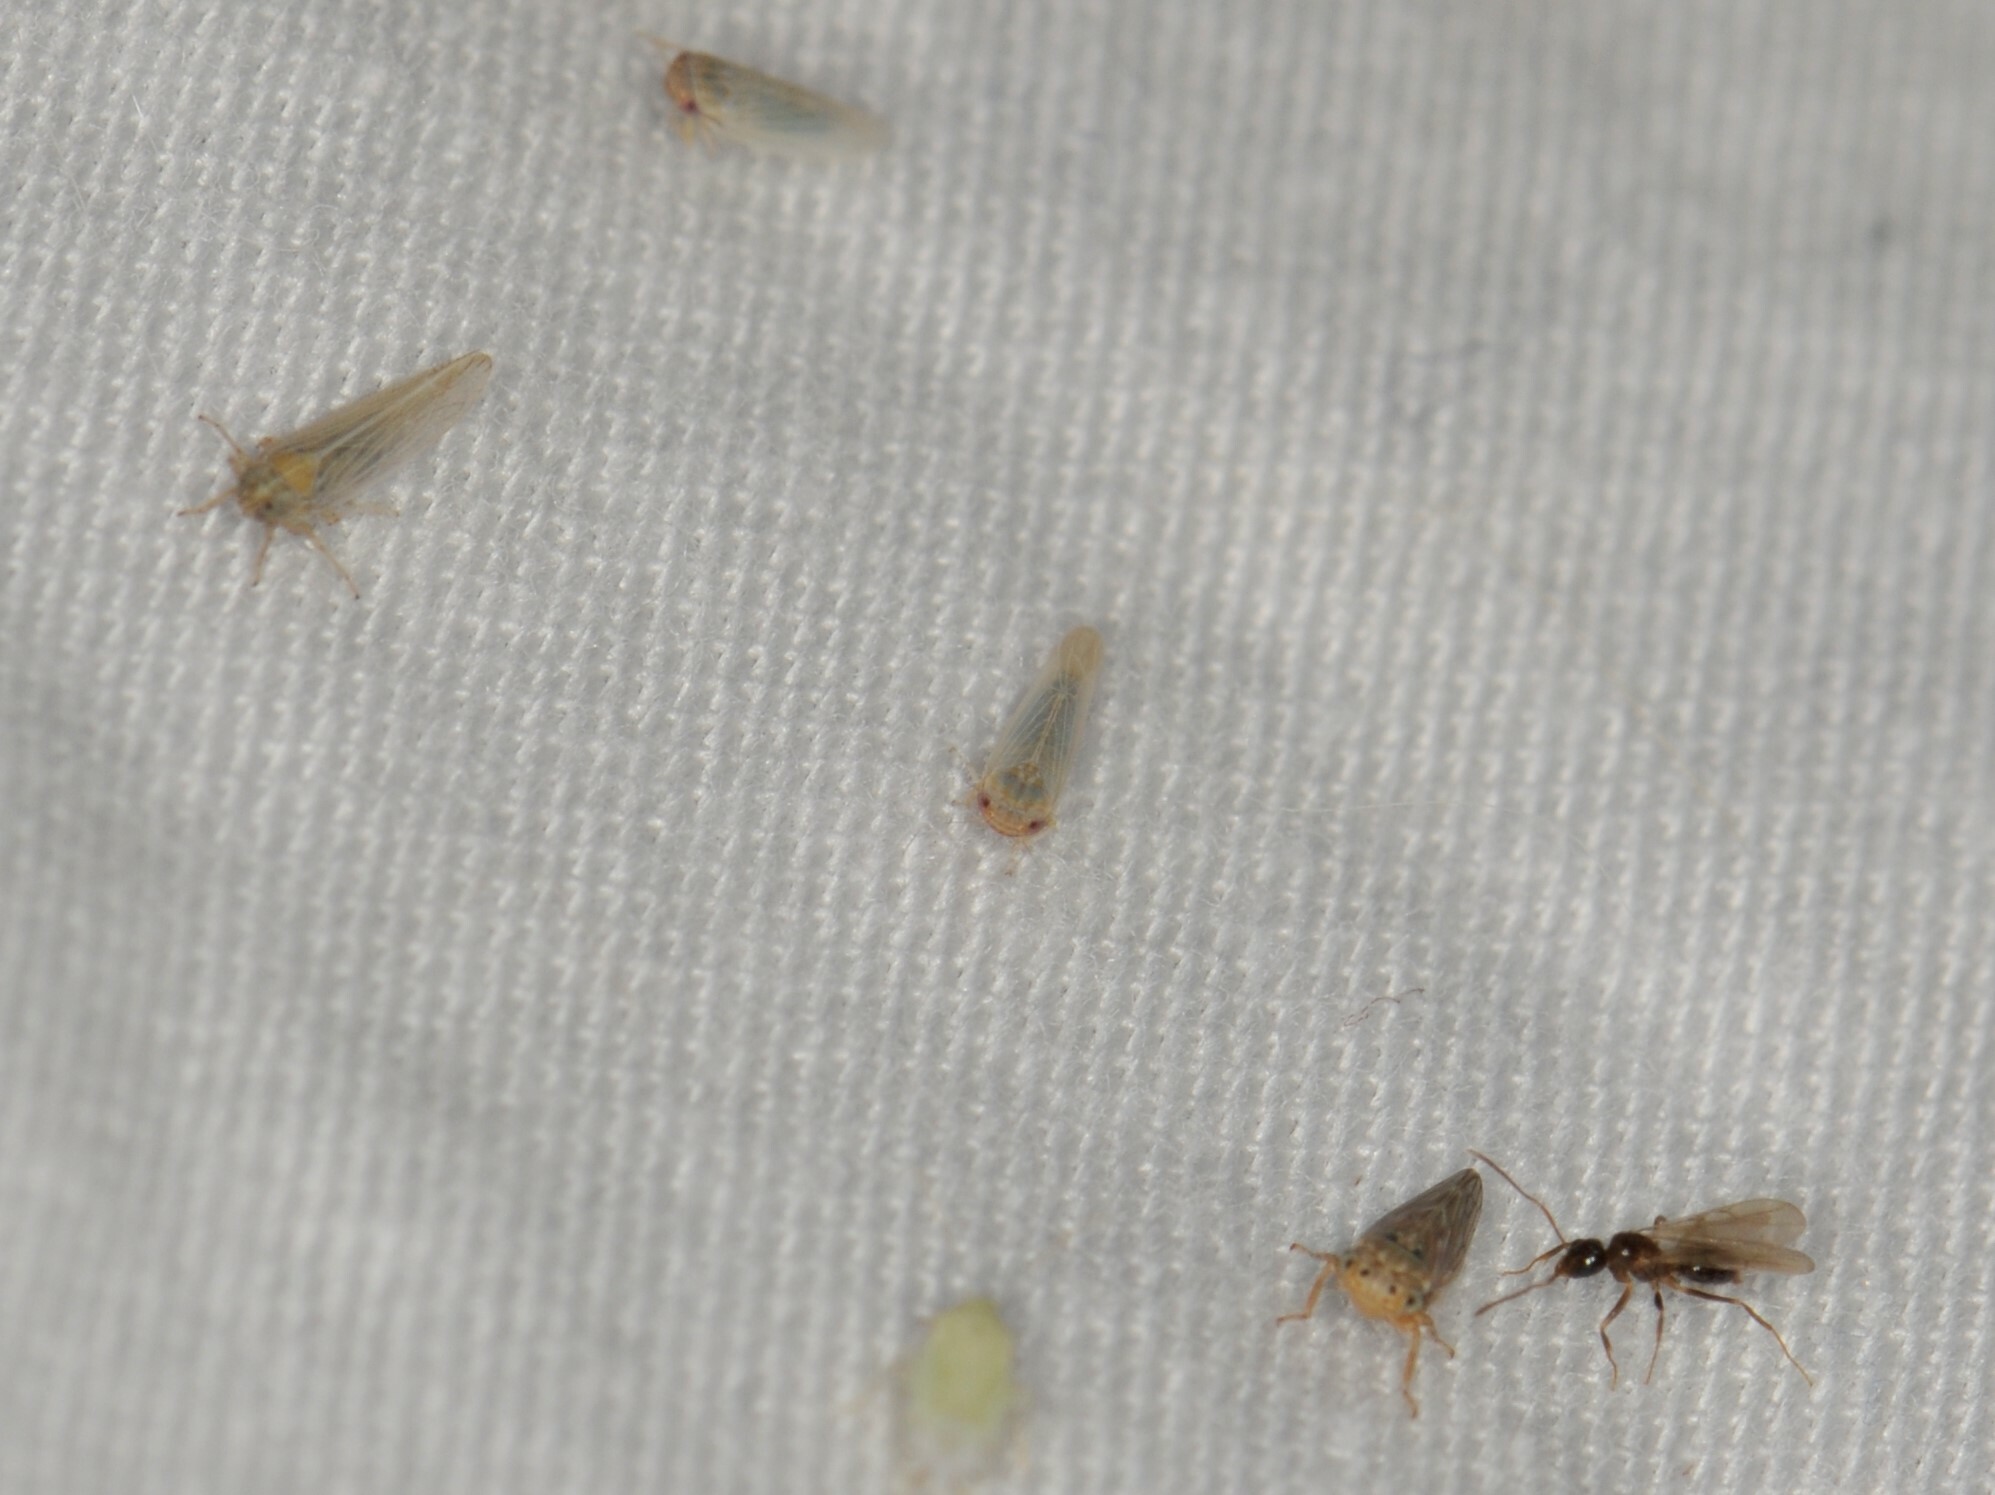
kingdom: Animalia
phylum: Arthropoda
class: Insecta
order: Hemiptera
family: Cicadellidae
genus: Balclutha
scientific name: Balclutha
